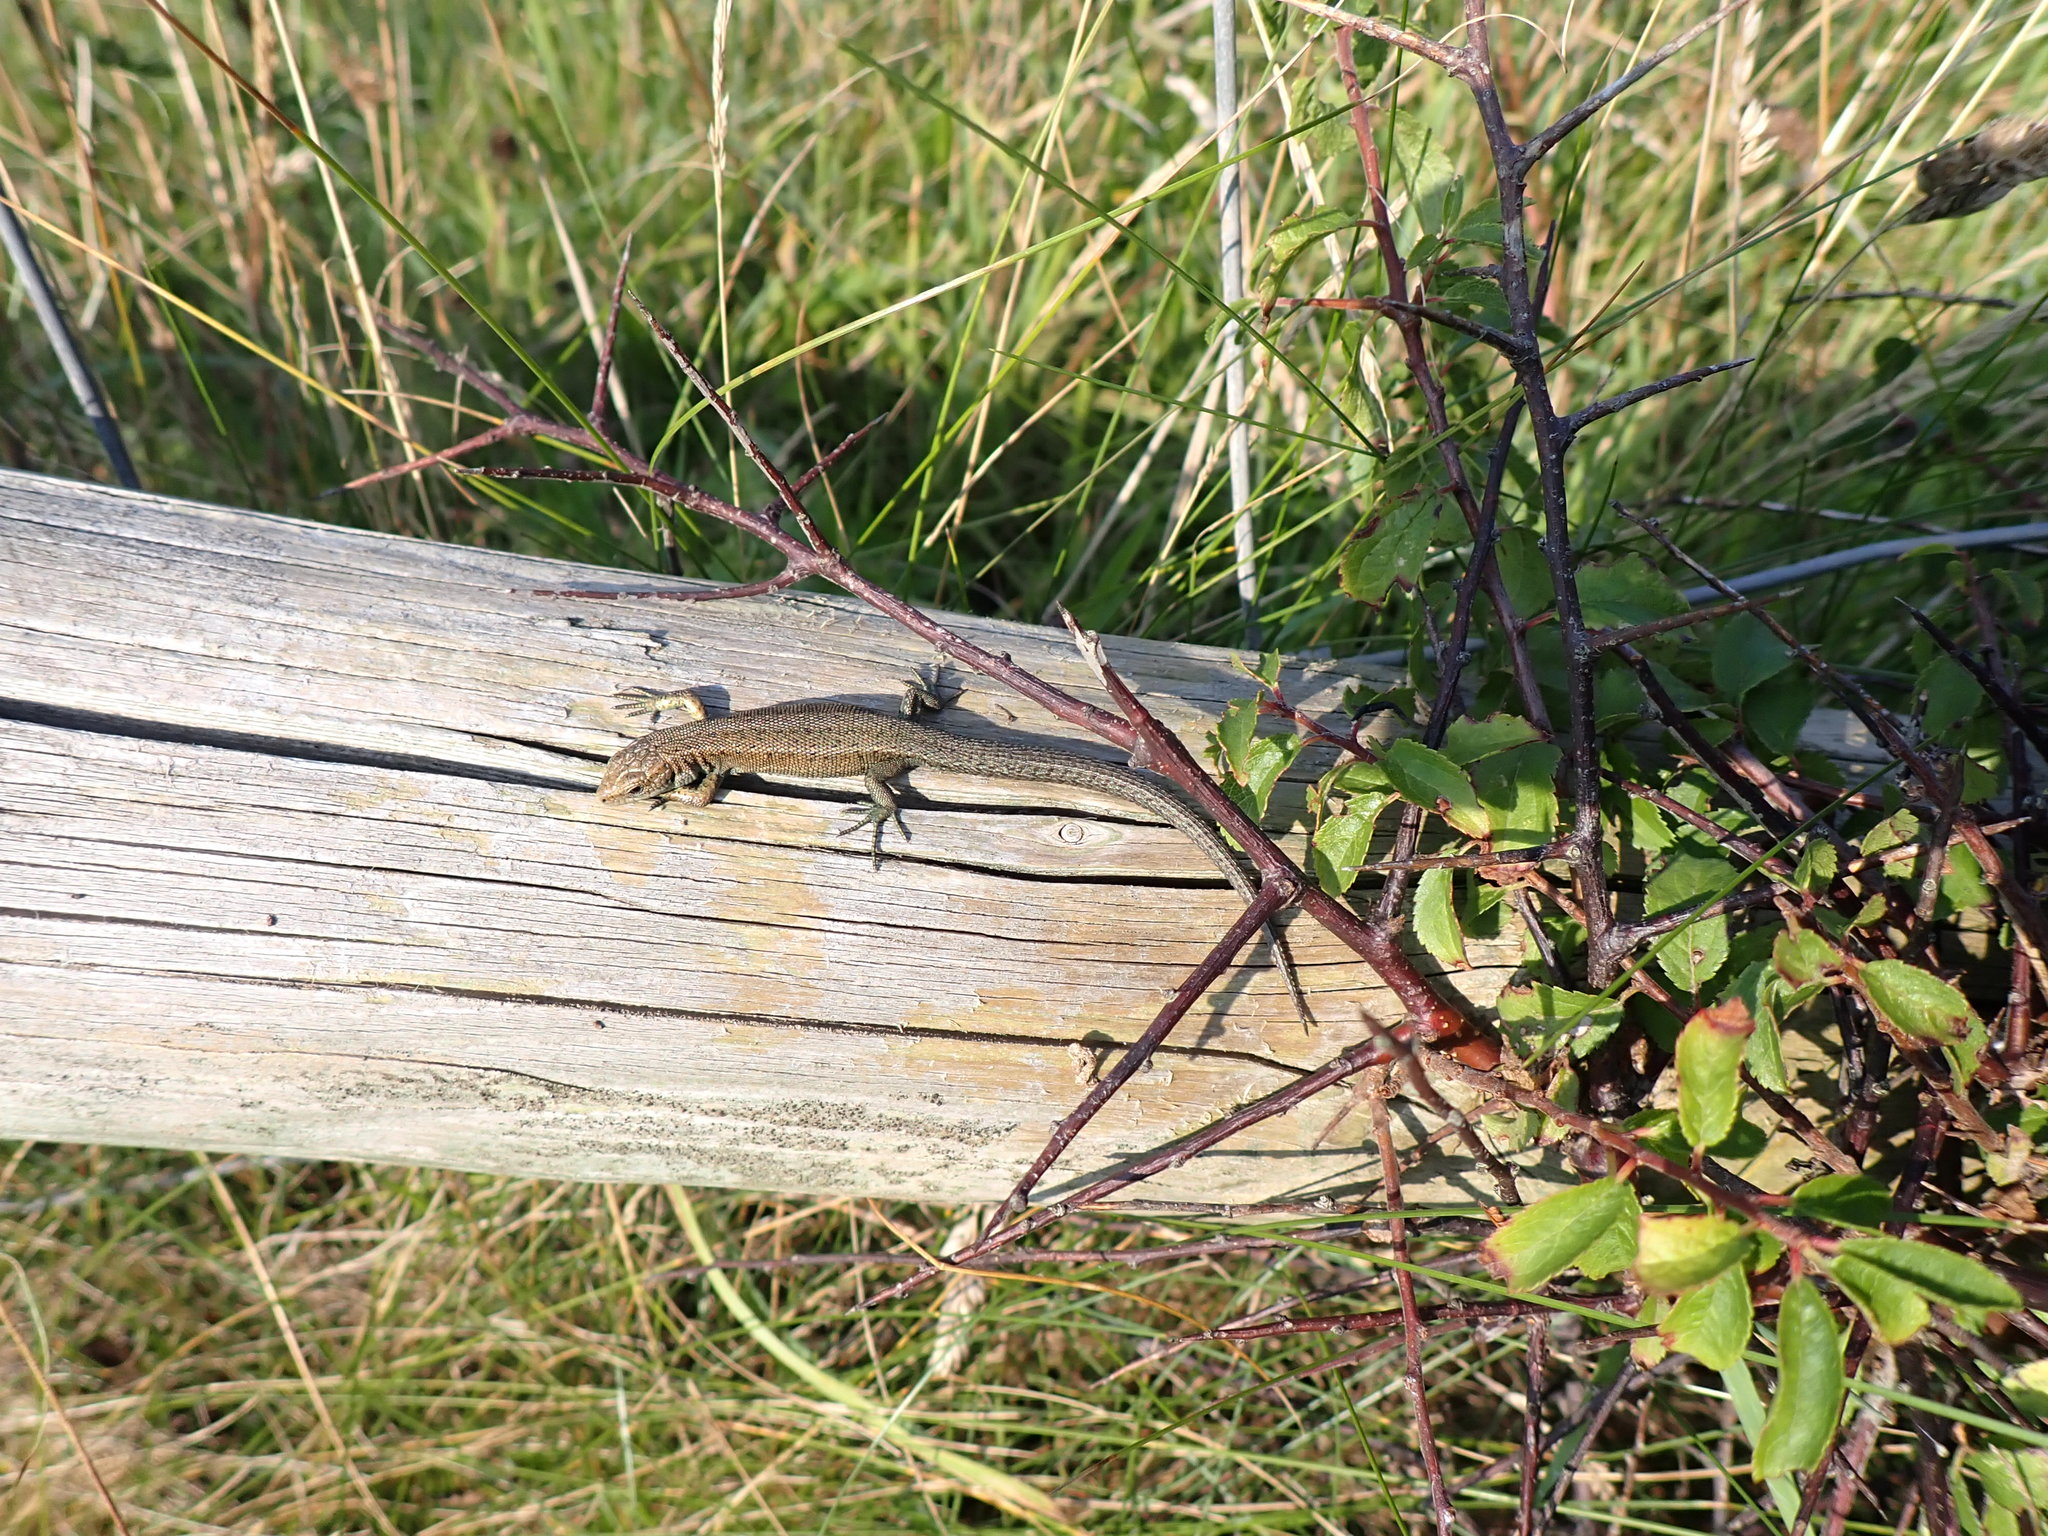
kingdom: Animalia
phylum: Chordata
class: Squamata
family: Lacertidae
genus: Zootoca
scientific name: Zootoca vivipara
